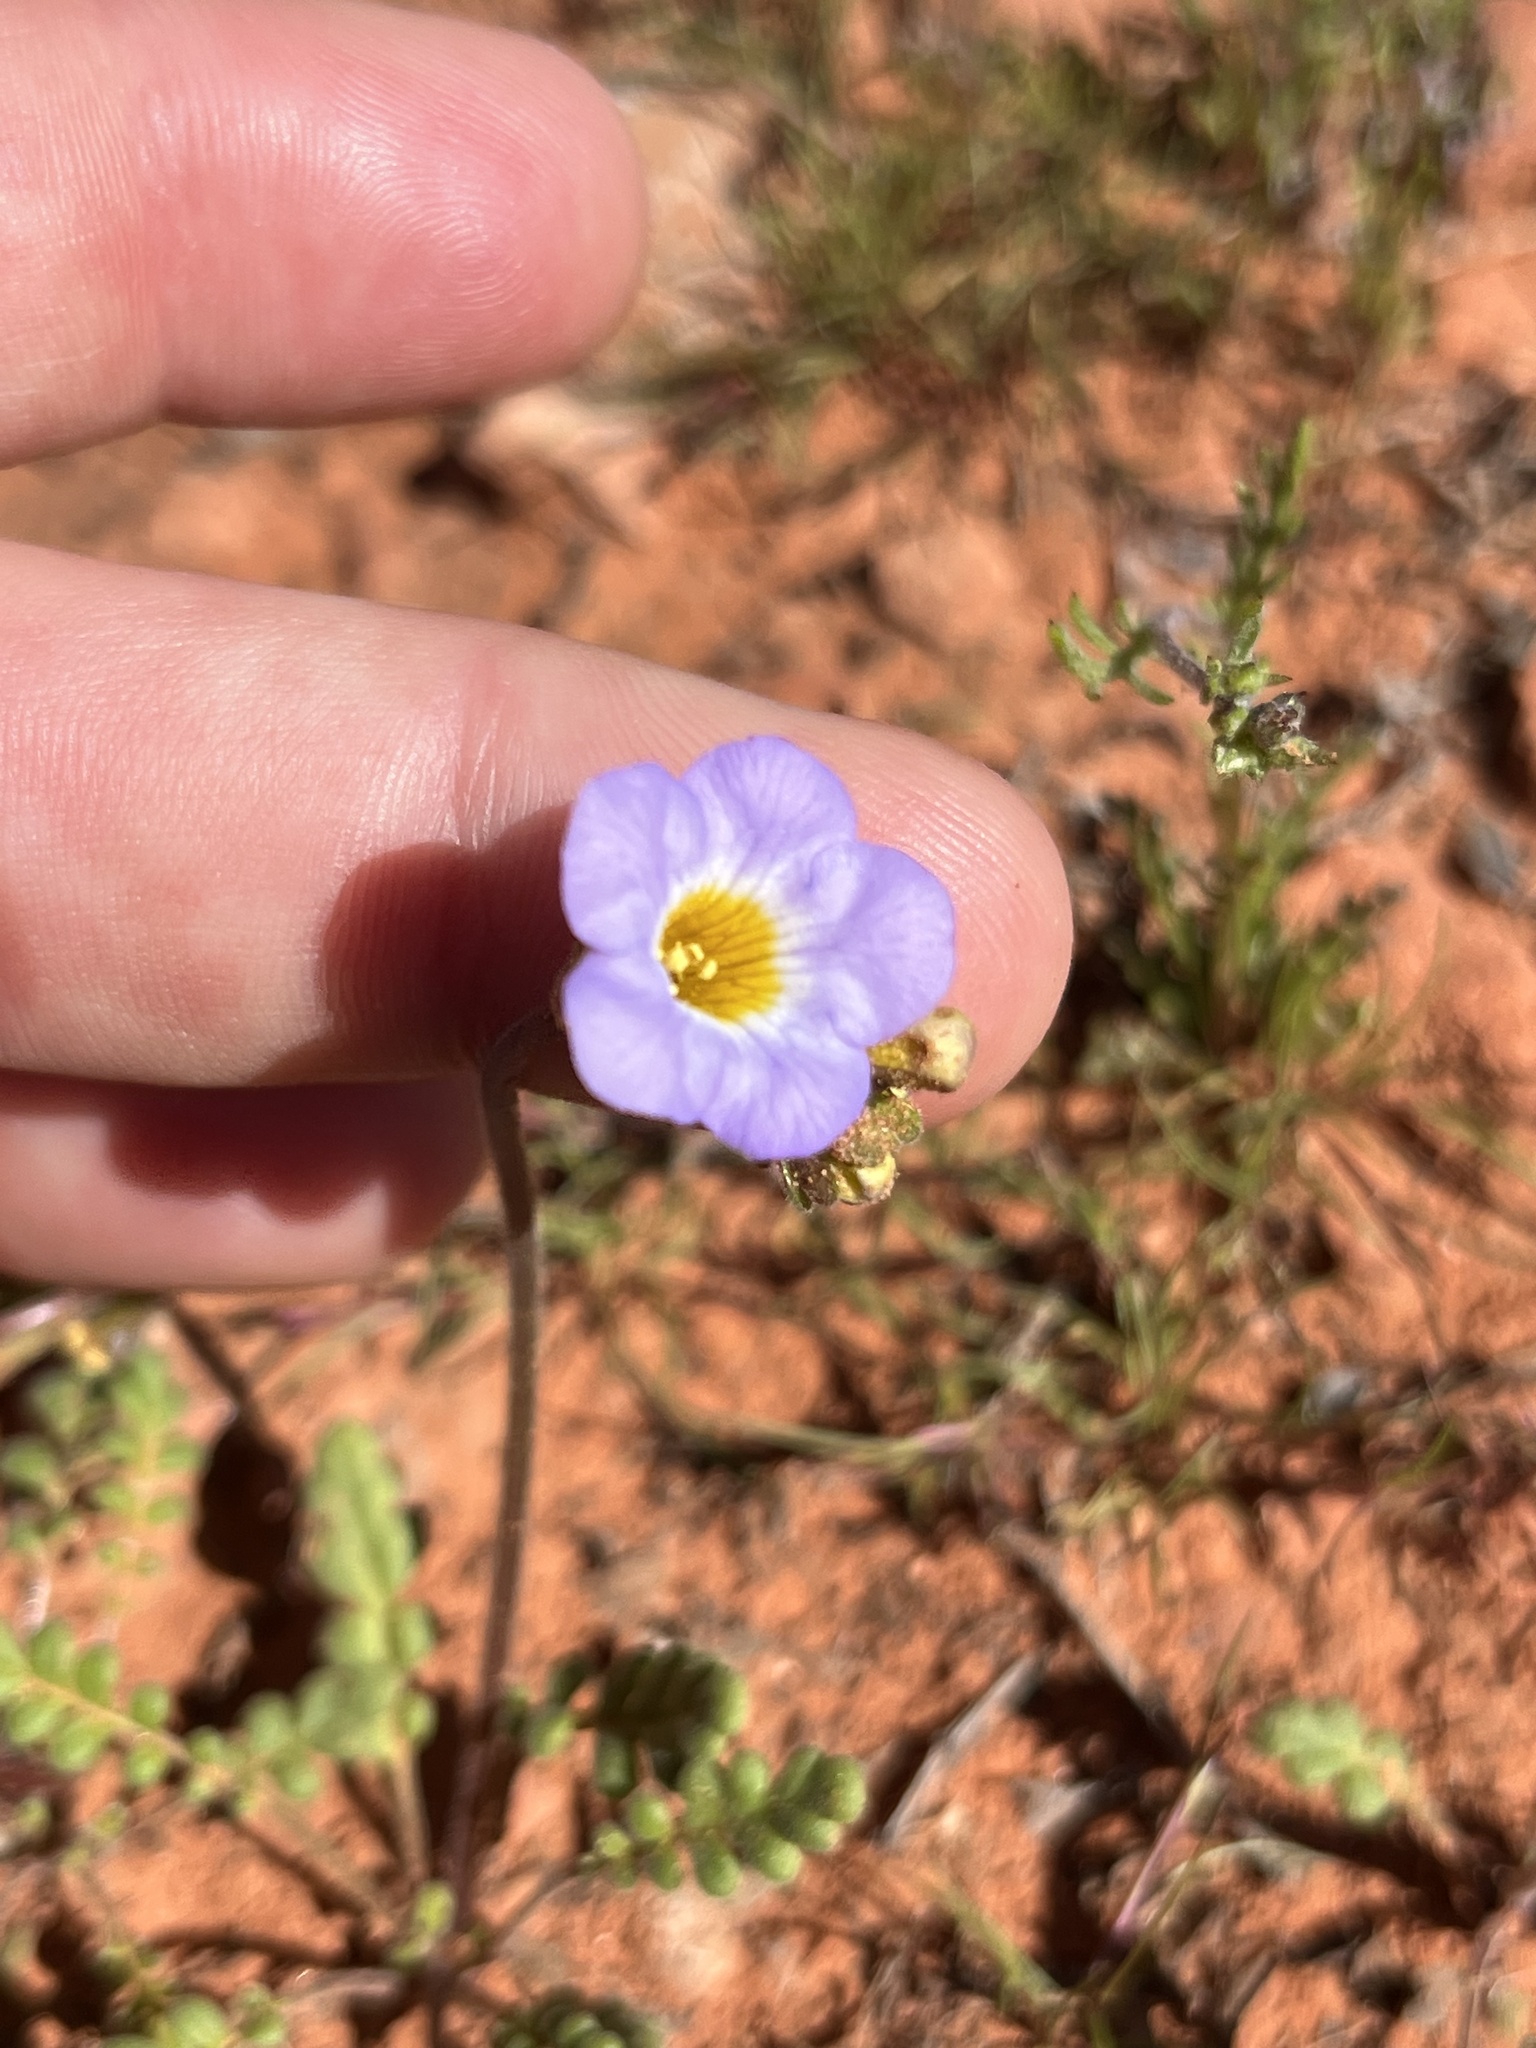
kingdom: Plantae
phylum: Tracheophyta
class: Magnoliopsida
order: Boraginales
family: Hydrophyllaceae
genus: Phacelia
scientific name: Phacelia fremontii
